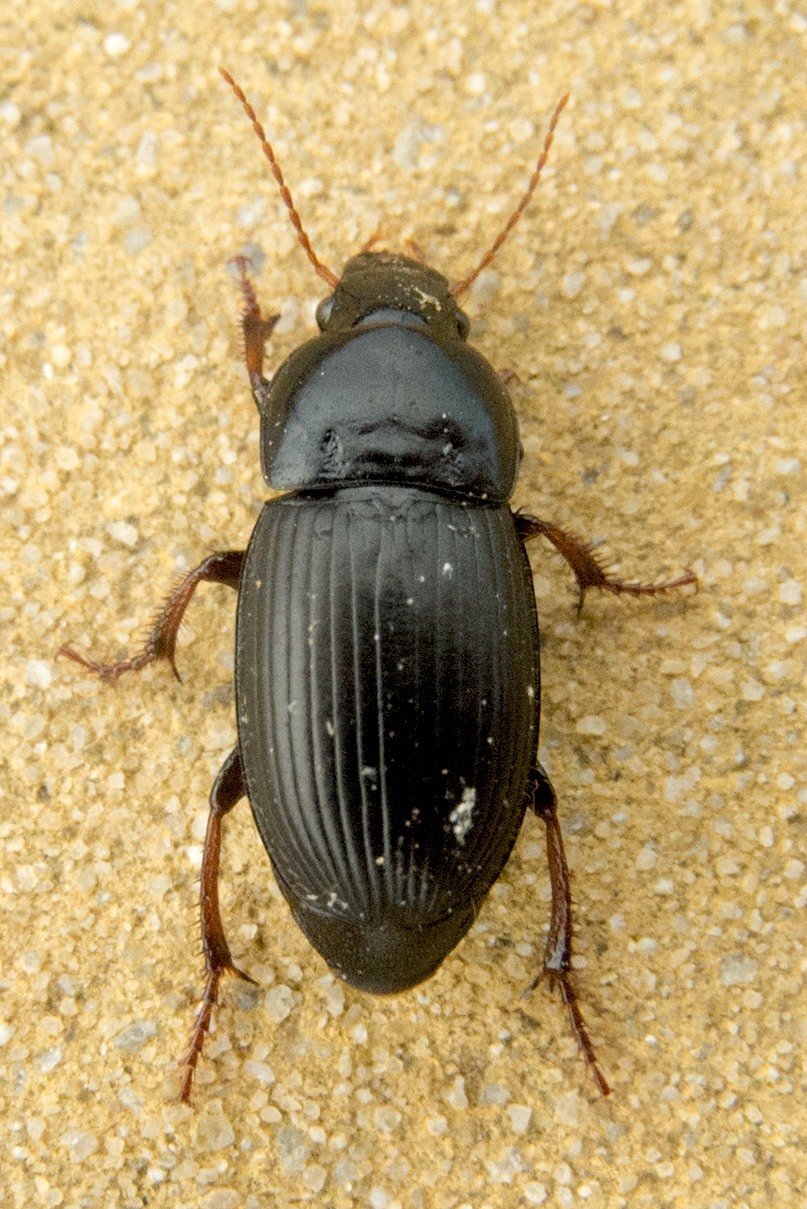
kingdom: Animalia
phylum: Arthropoda
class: Insecta
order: Coleoptera
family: Carabidae
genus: Harpalus
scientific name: Harpalus flavicornis
